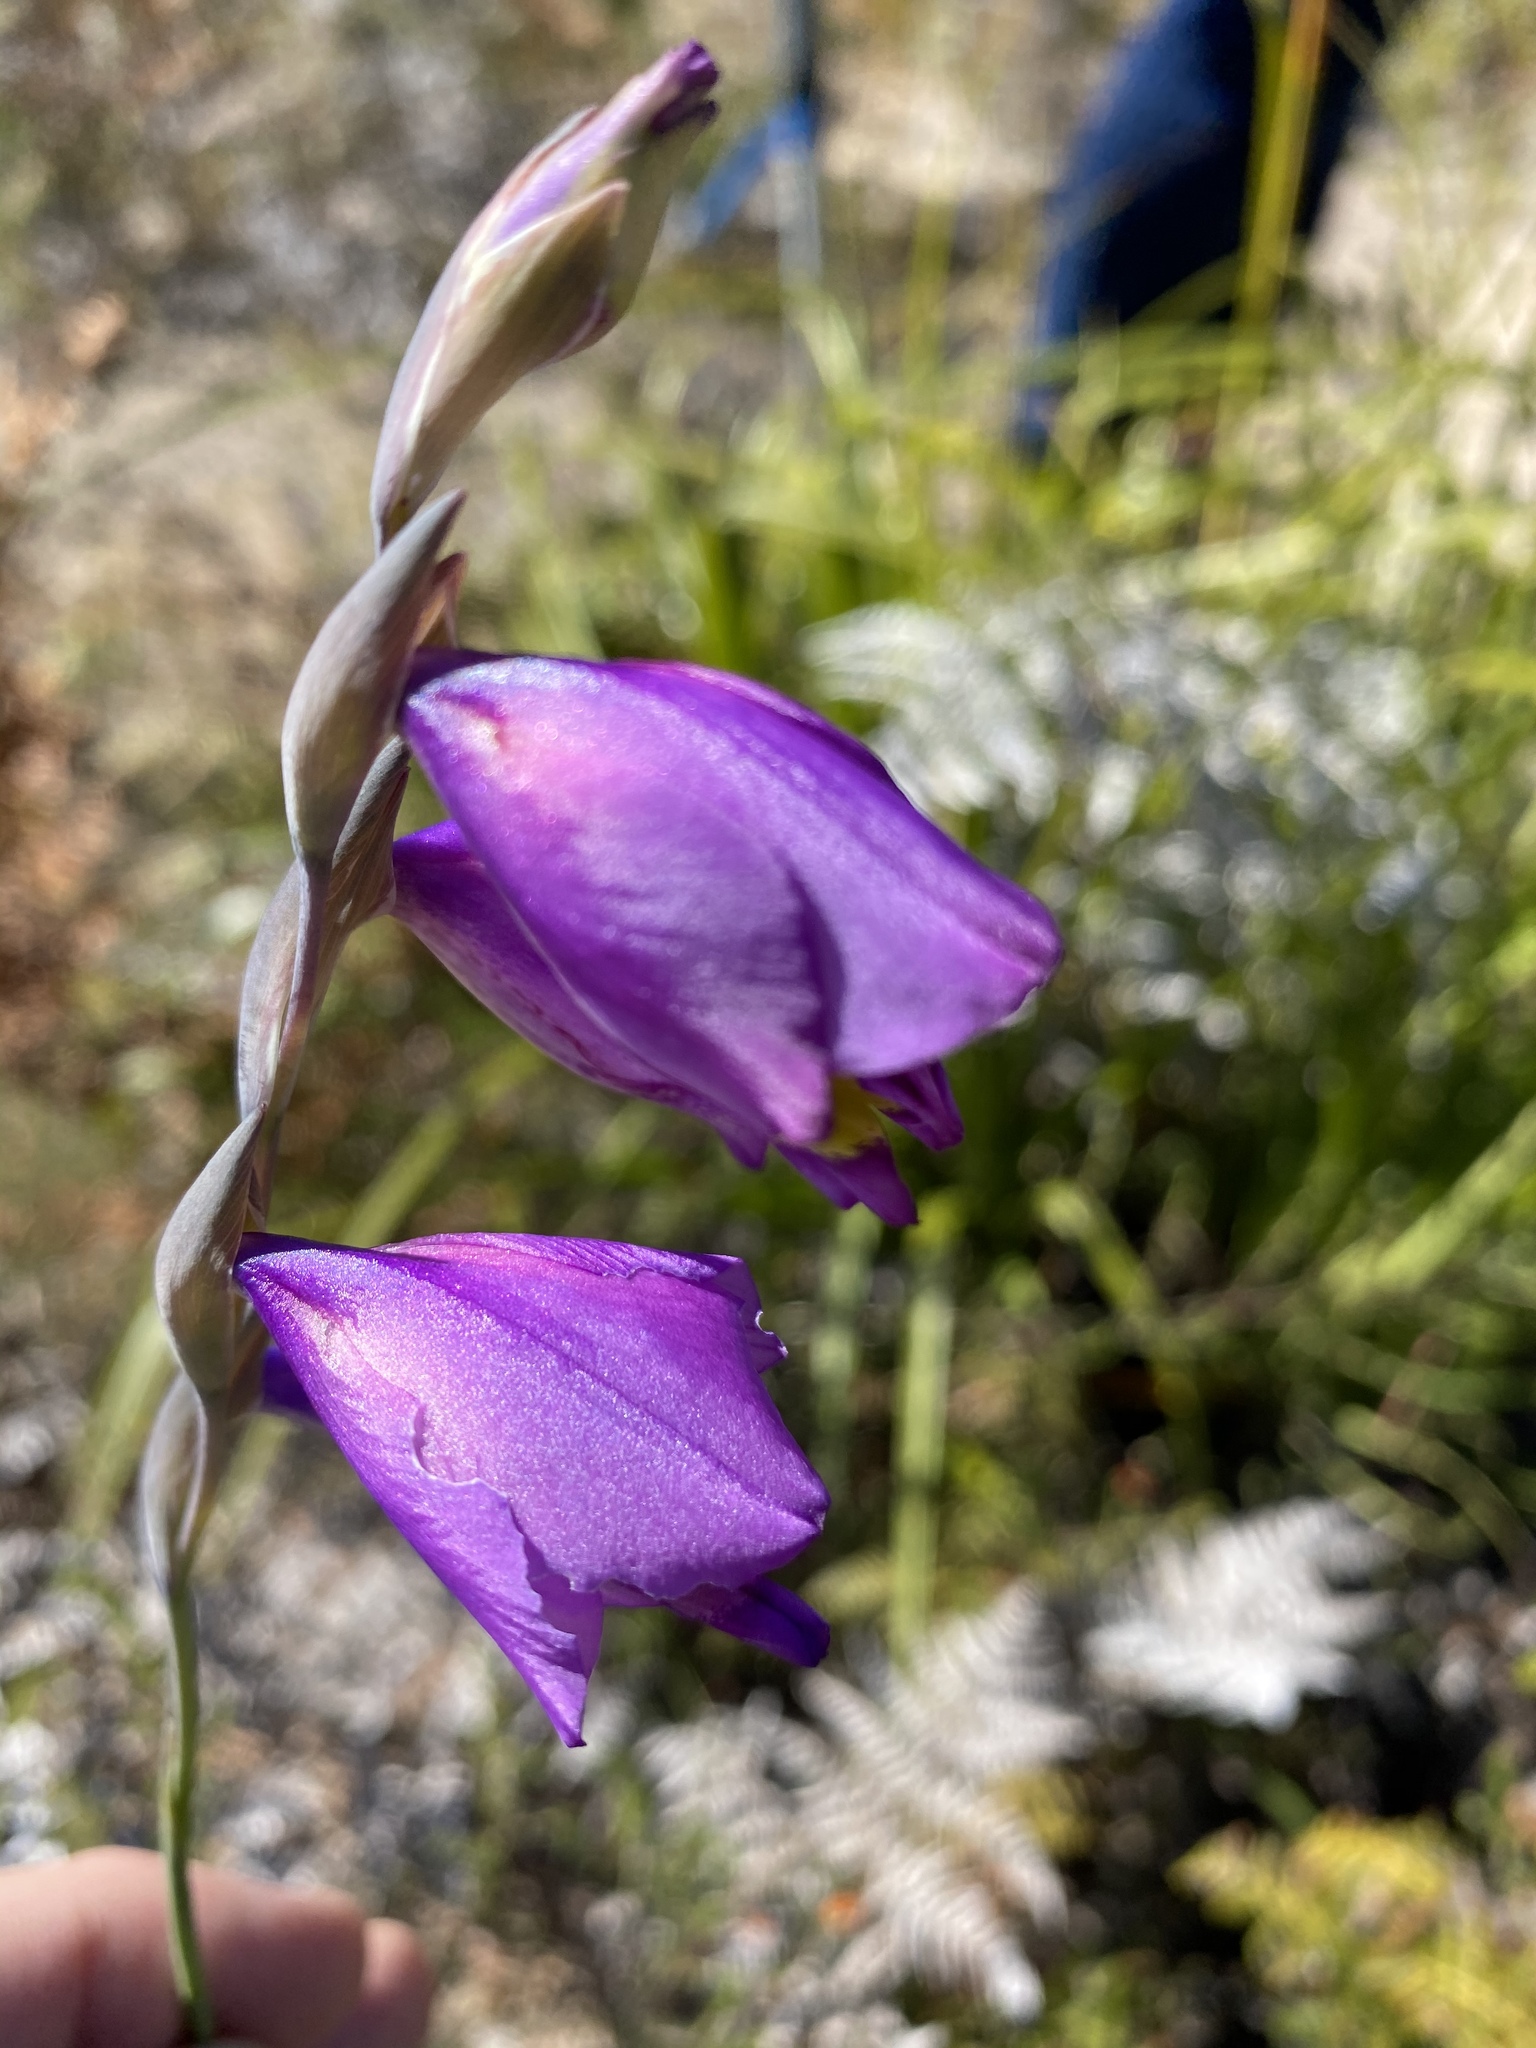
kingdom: Plantae
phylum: Tracheophyta
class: Liliopsida
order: Asparagales
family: Iridaceae
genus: Gladiolus
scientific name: Gladiolus patersoniae
